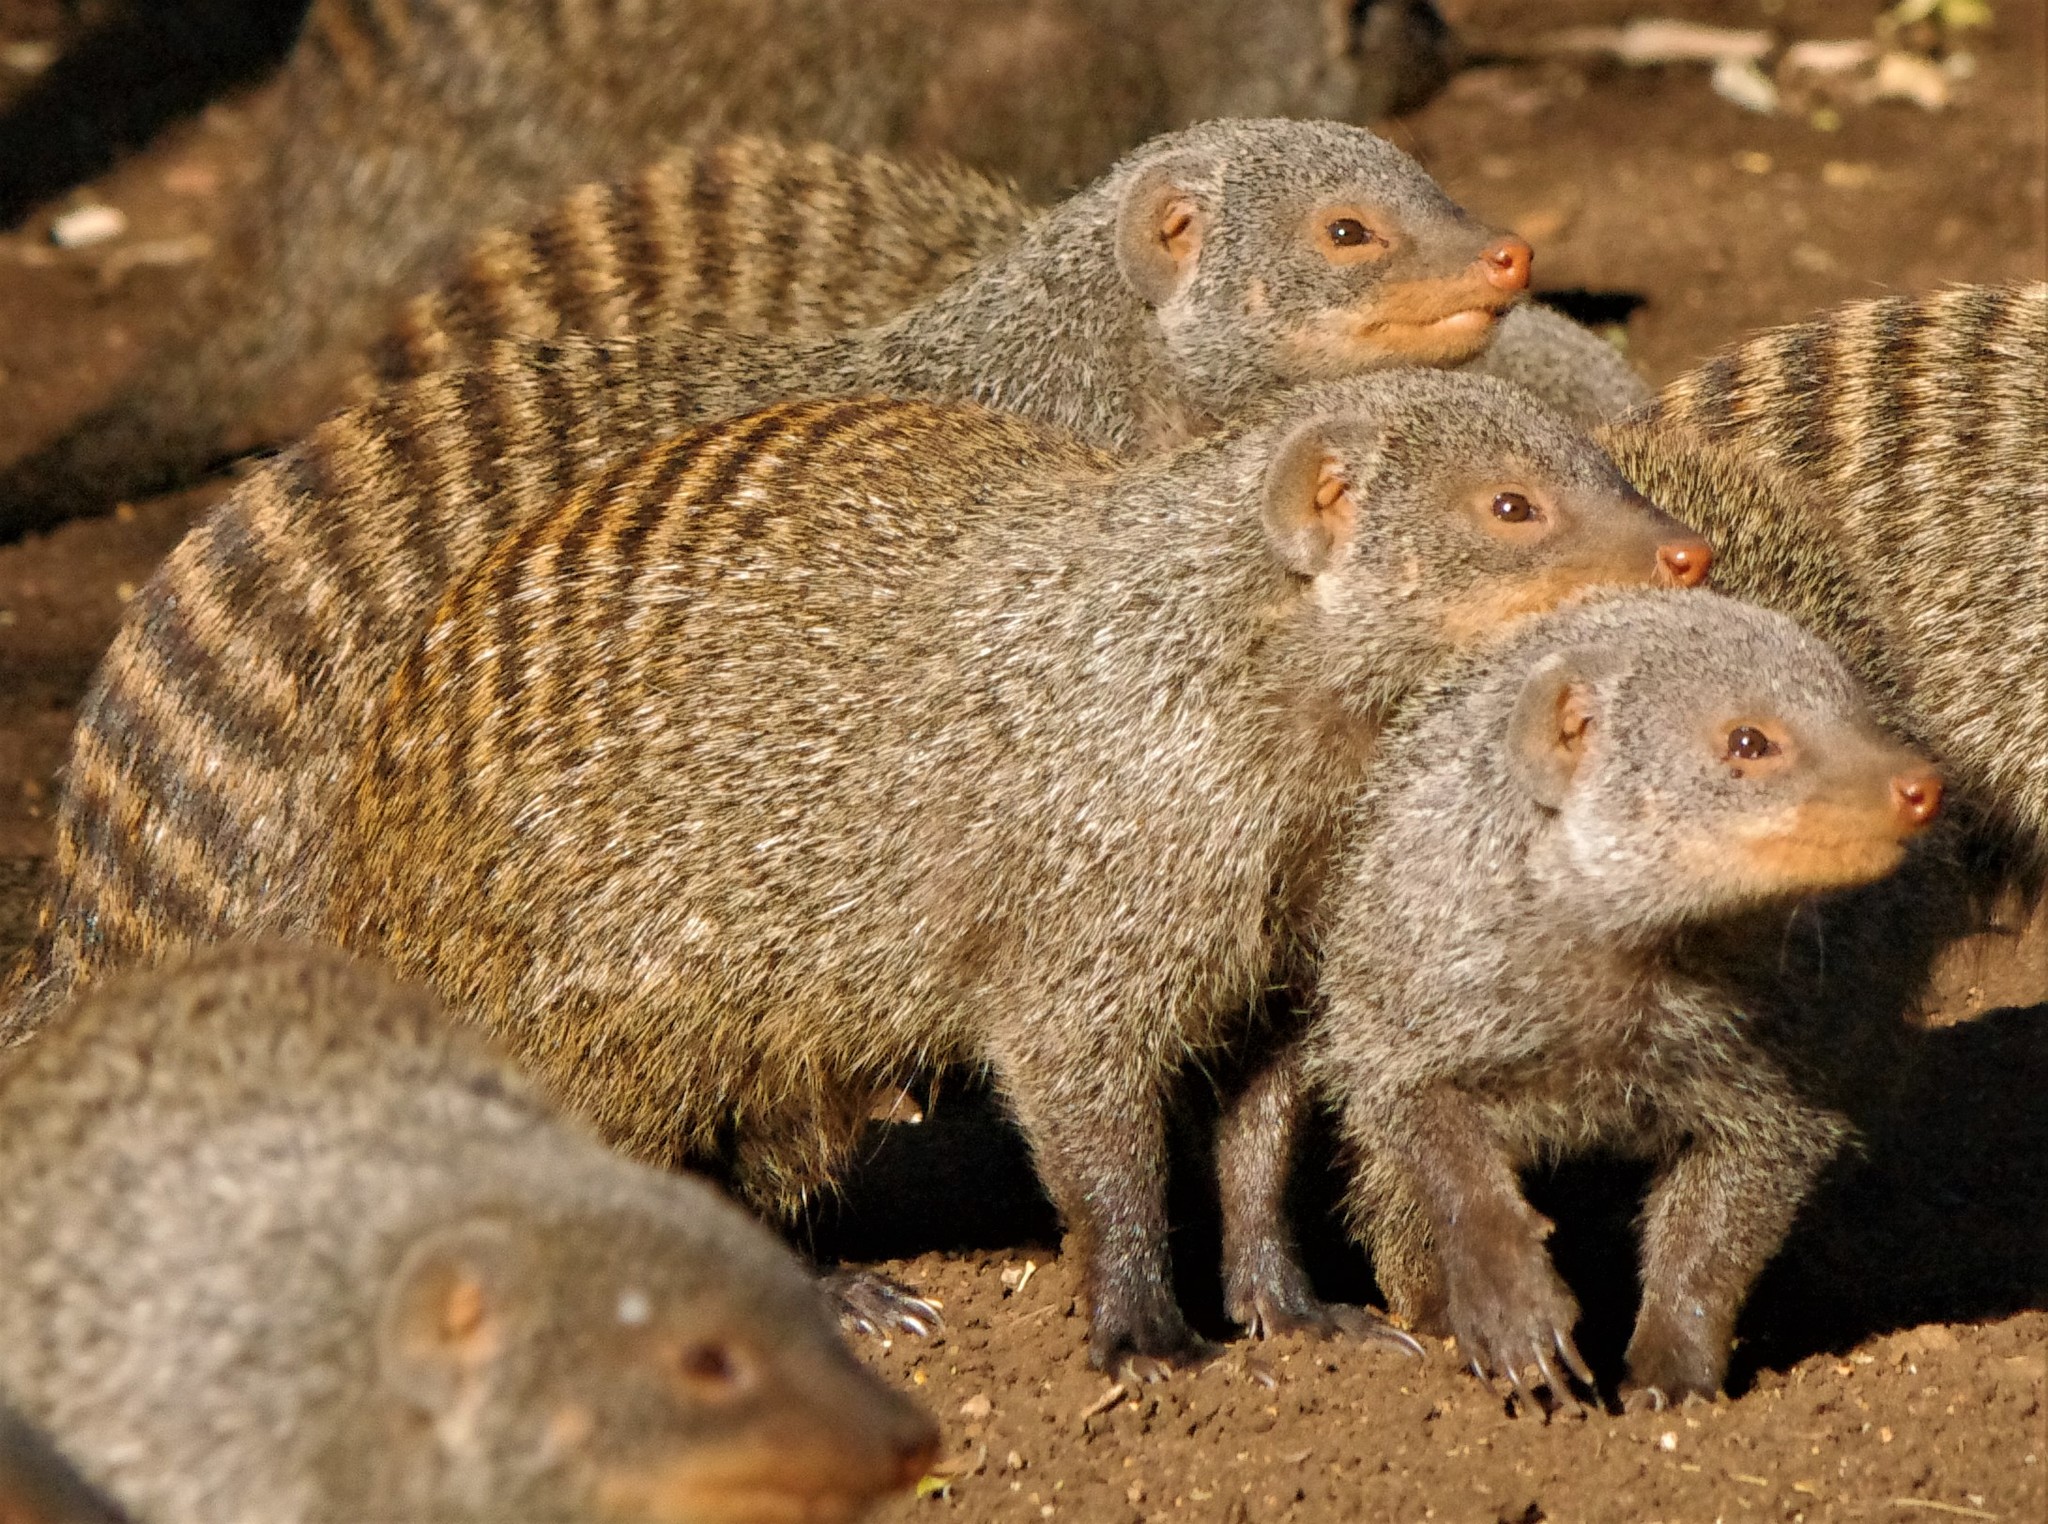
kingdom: Animalia
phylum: Chordata
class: Mammalia
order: Carnivora
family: Herpestidae
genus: Mungos
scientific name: Mungos mungo
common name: Banded mongoose
